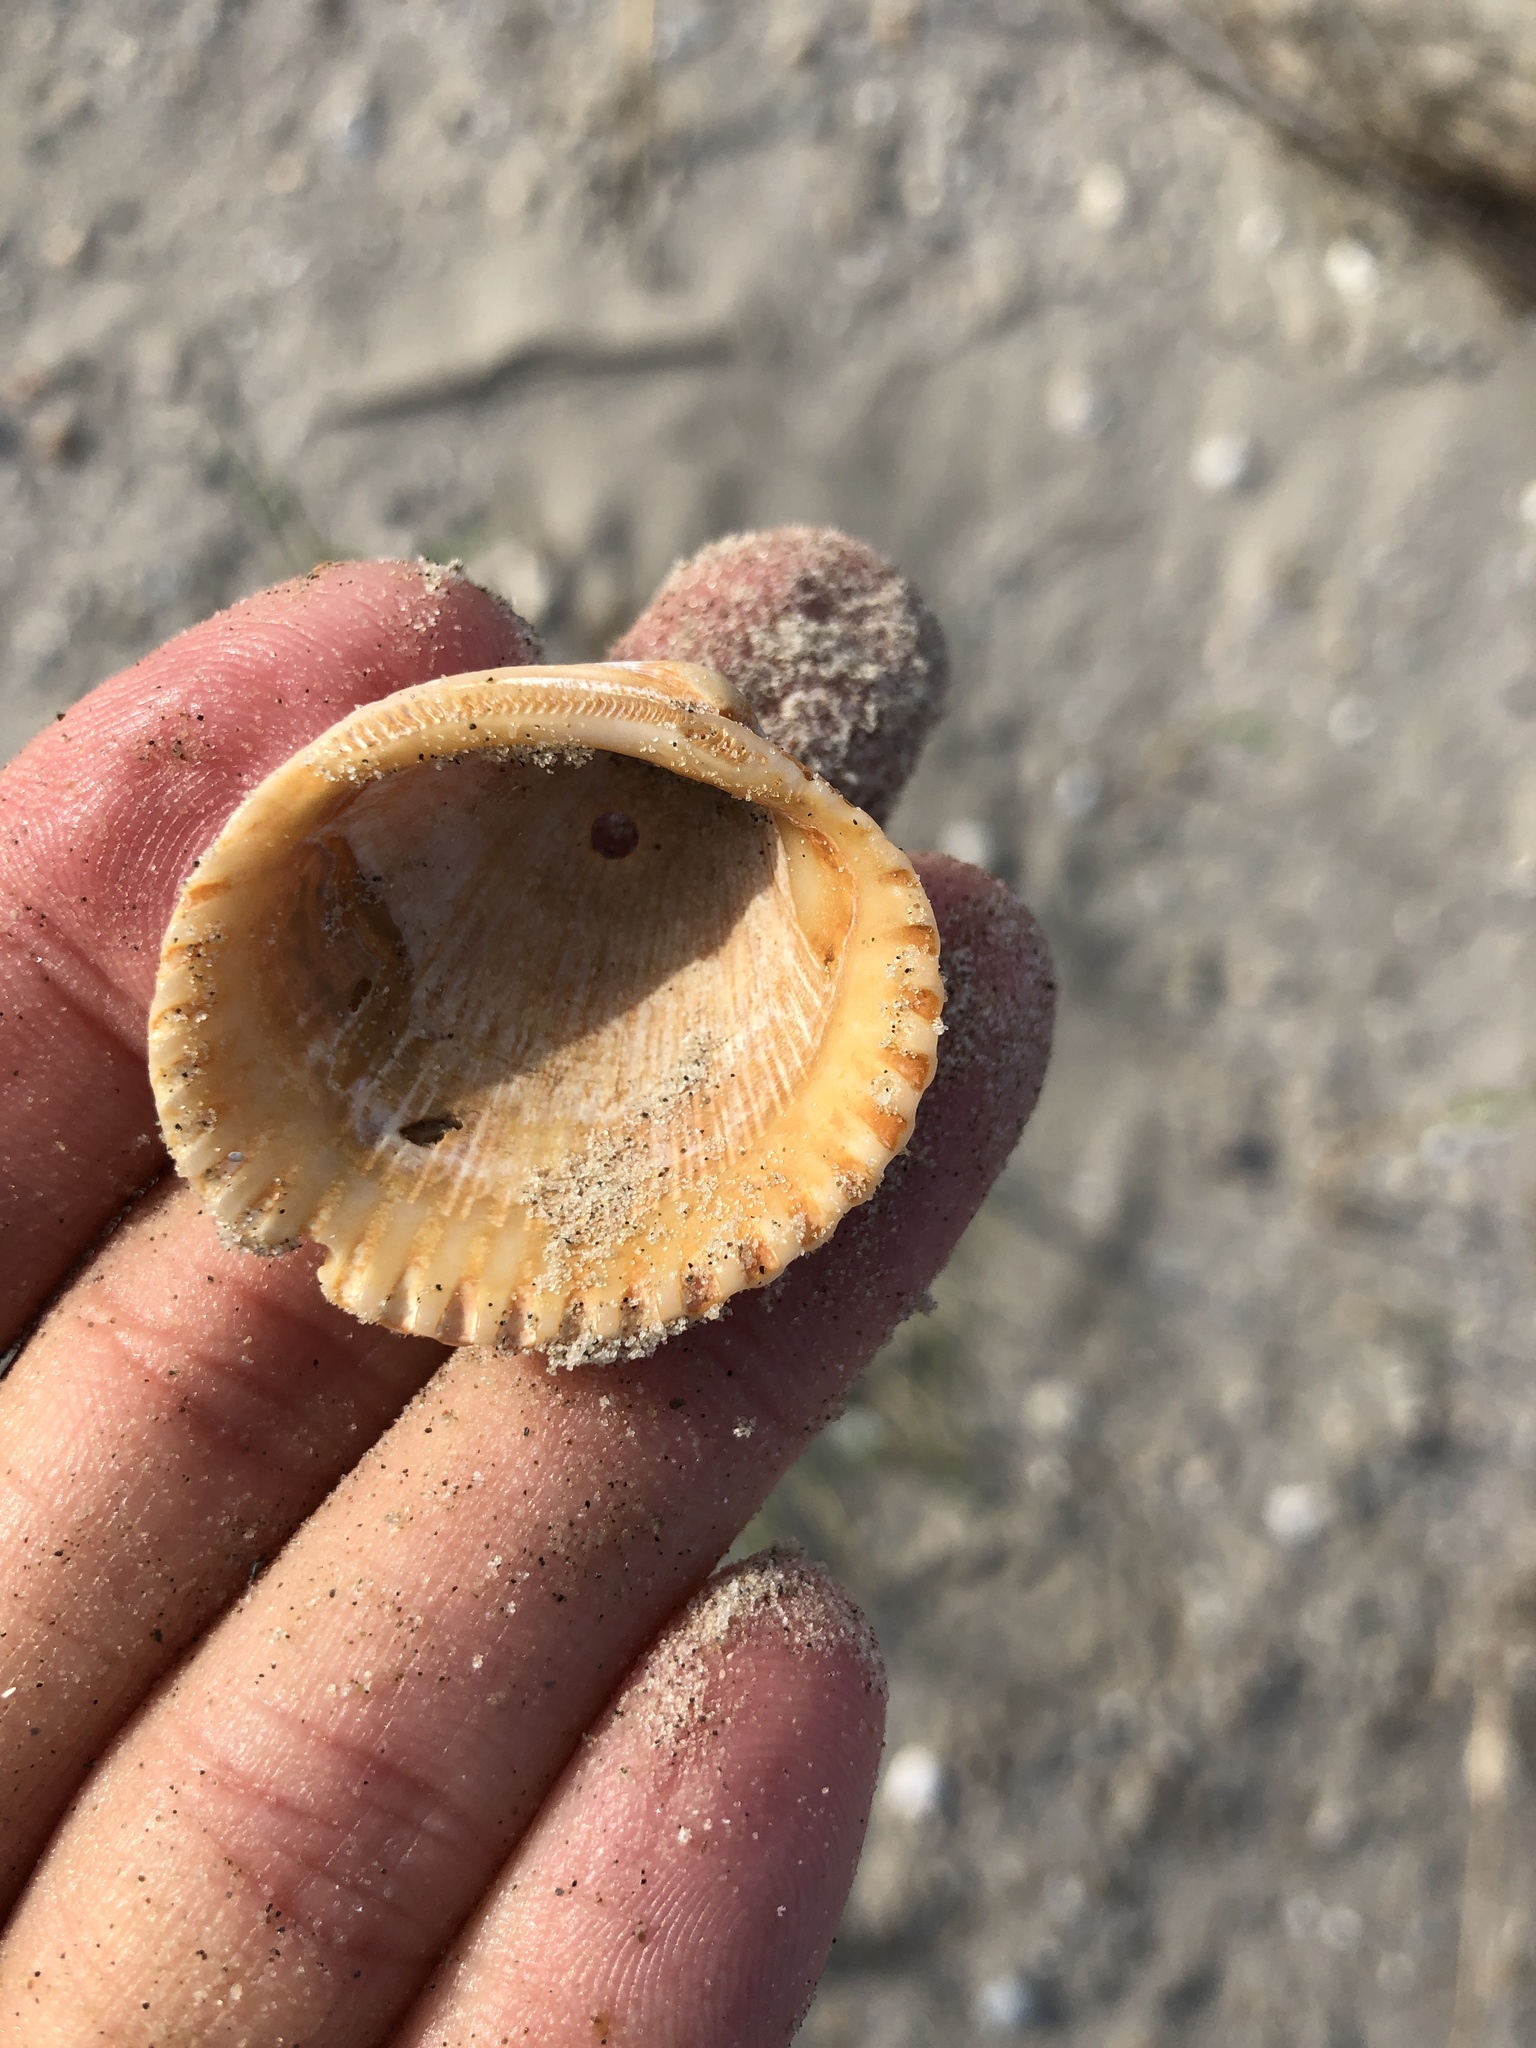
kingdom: Animalia
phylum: Mollusca
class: Bivalvia
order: Arcida
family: Arcidae
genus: Lunarca
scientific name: Lunarca ovalis
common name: Blood ark
